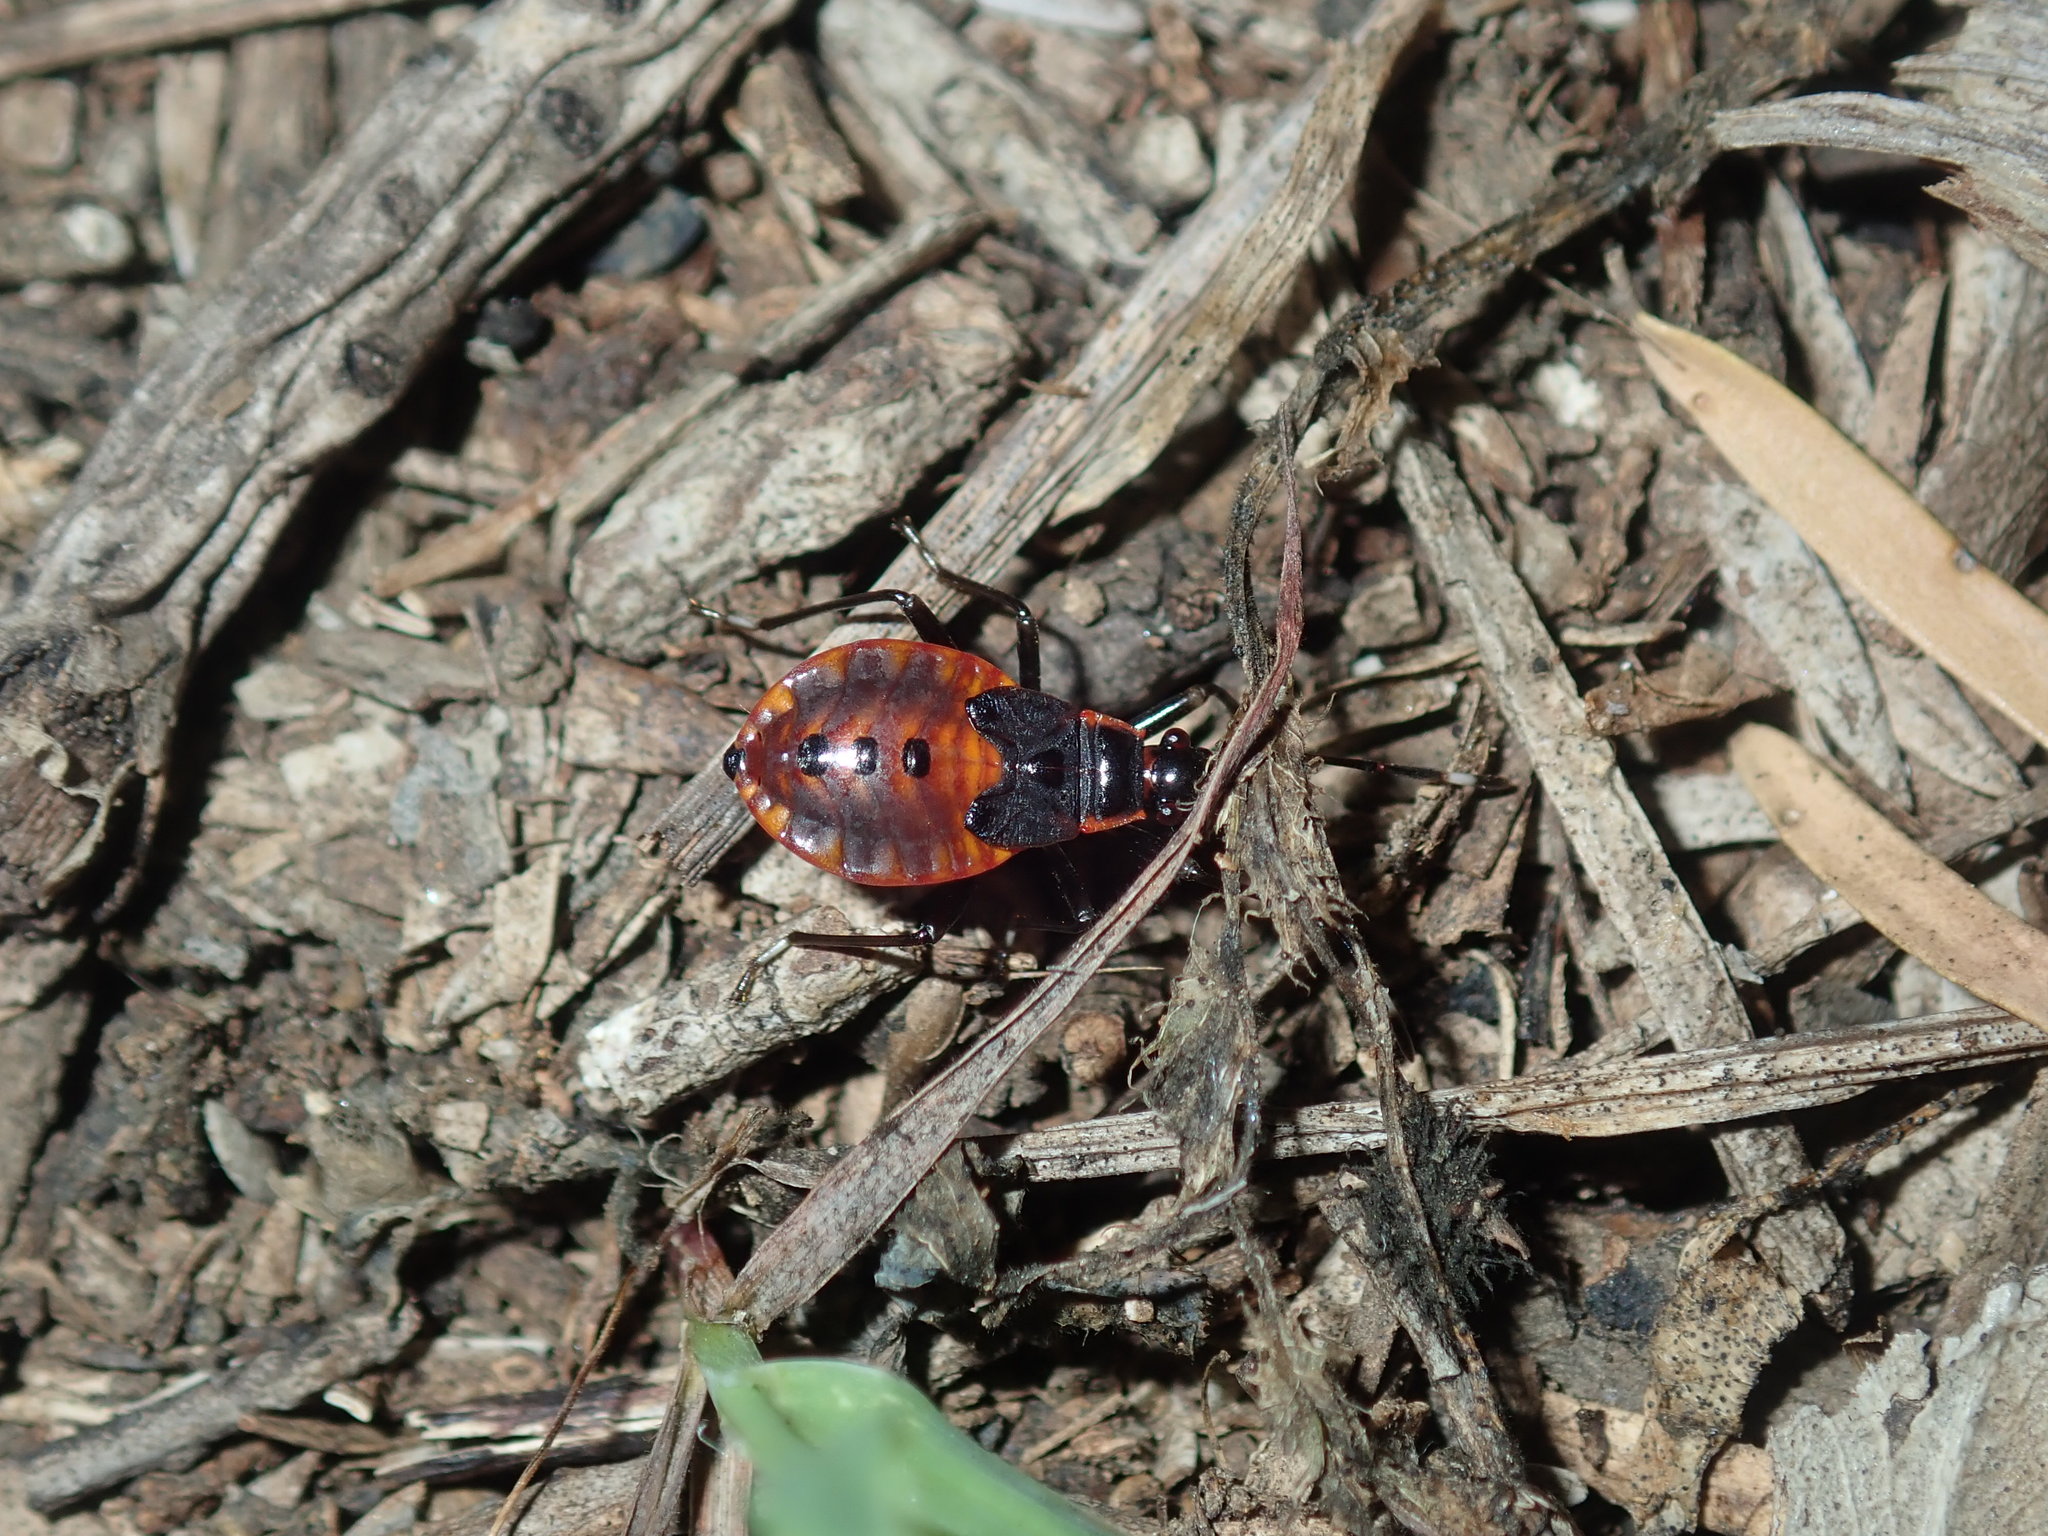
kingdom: Animalia
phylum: Arthropoda
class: Insecta
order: Hemiptera
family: Pyrrhocoridae
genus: Dindymus
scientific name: Dindymus
